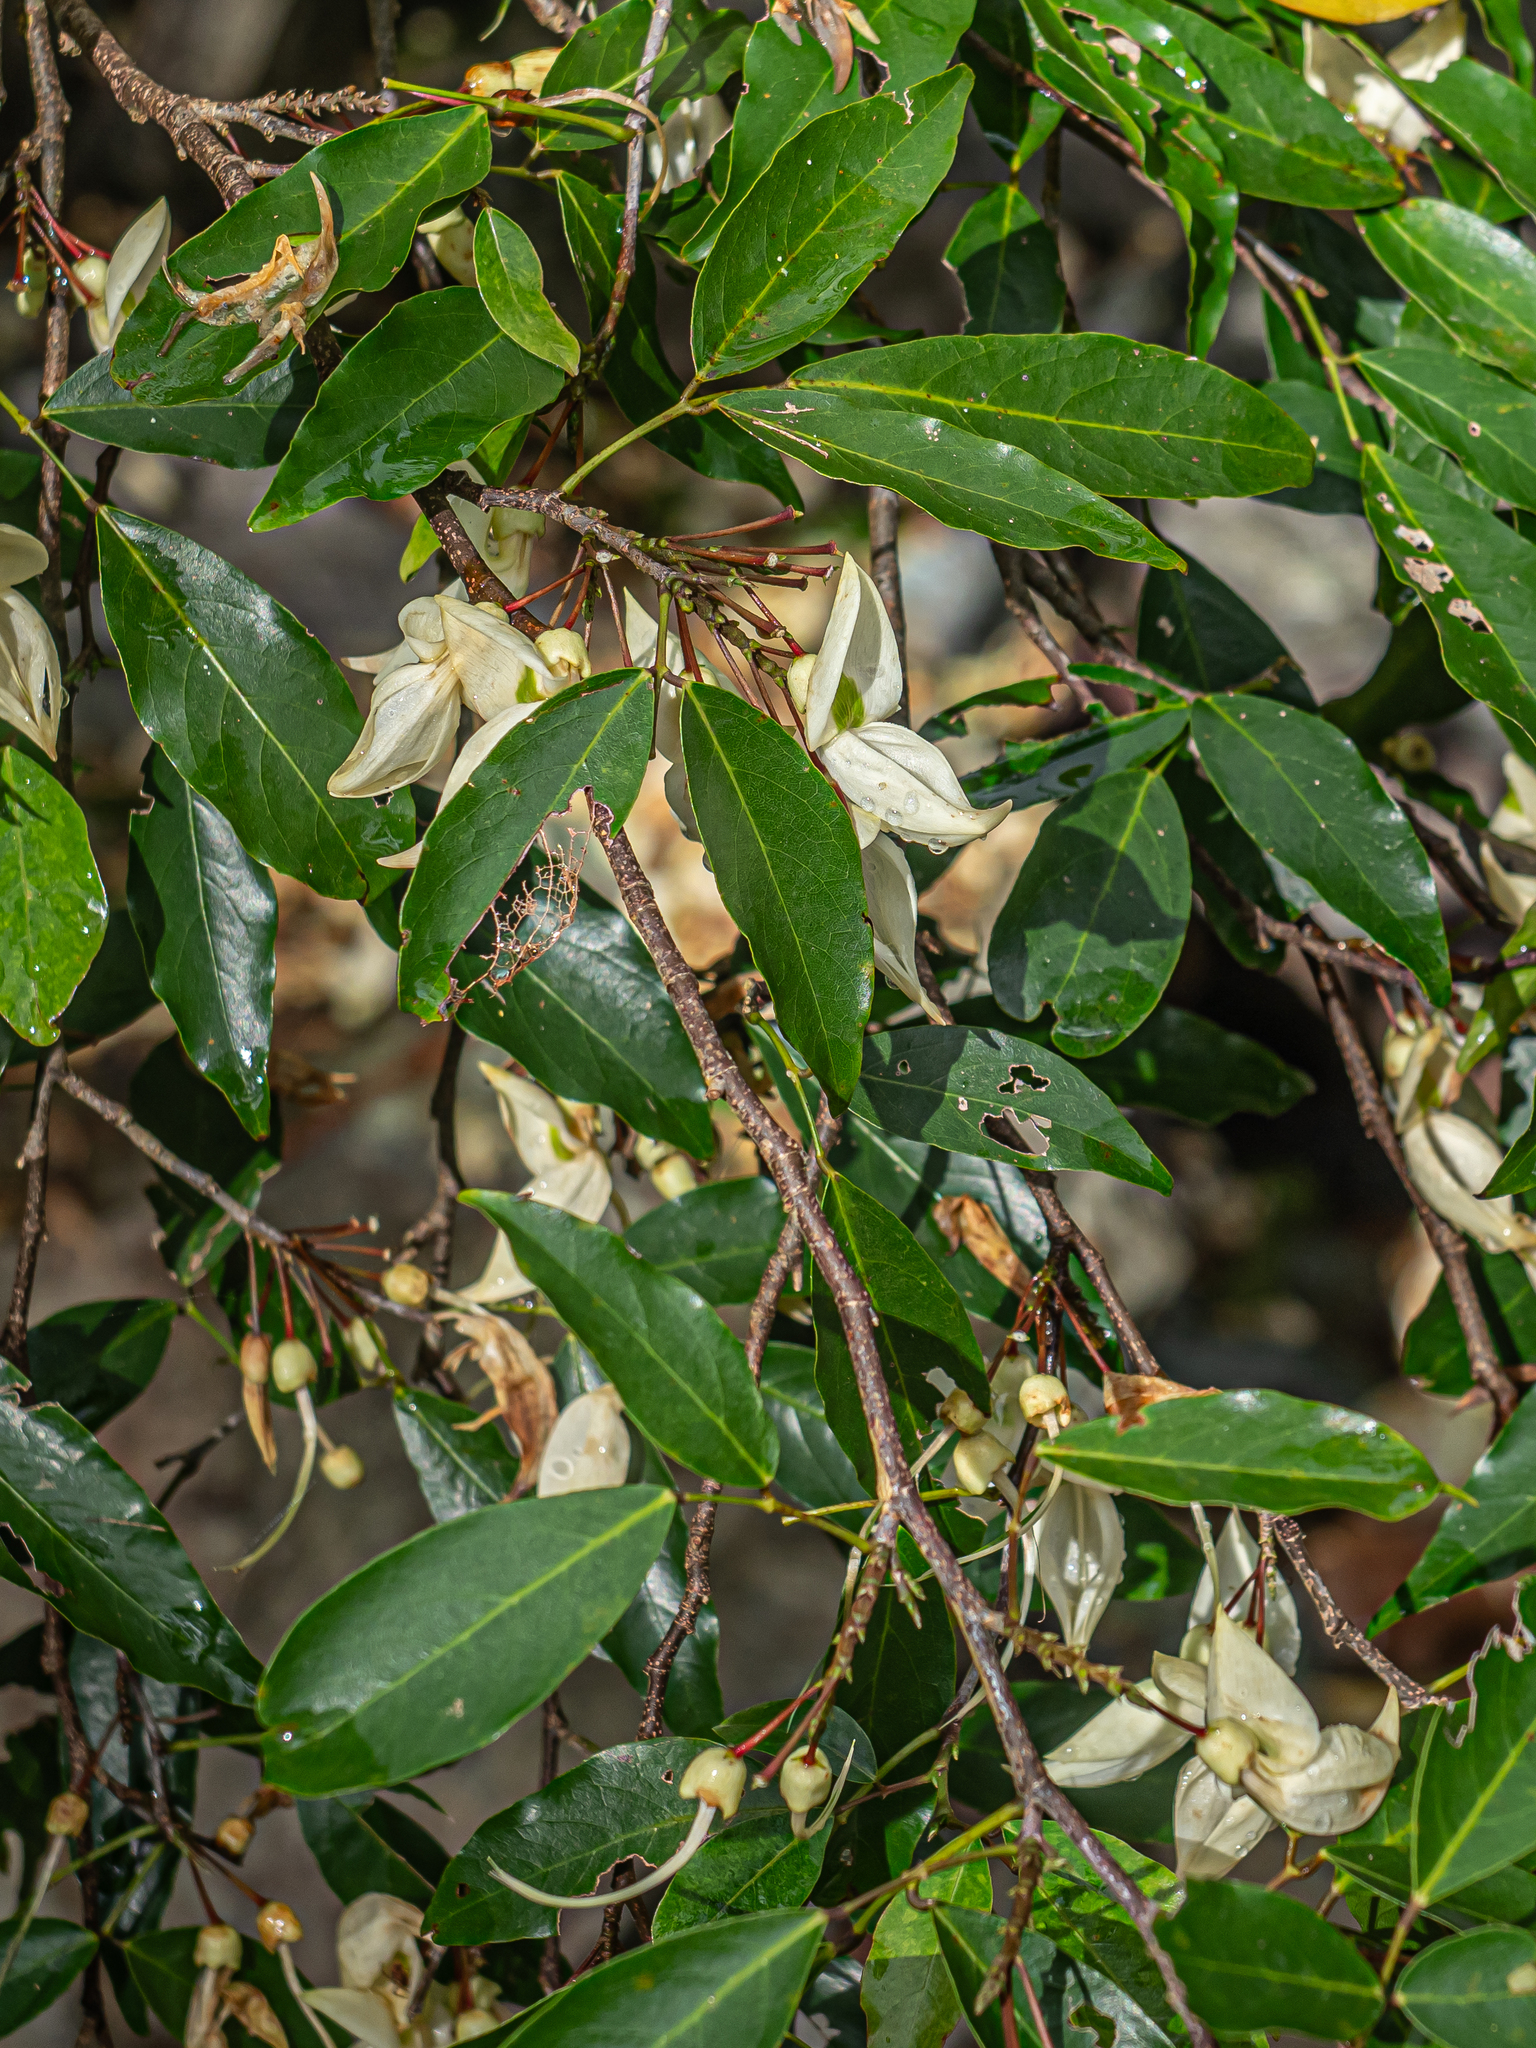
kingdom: Plantae
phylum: Tracheophyta
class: Magnoliopsida
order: Fabales
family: Fabaceae
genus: Arthroclianthus
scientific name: Arthroclianthus angustifolius
